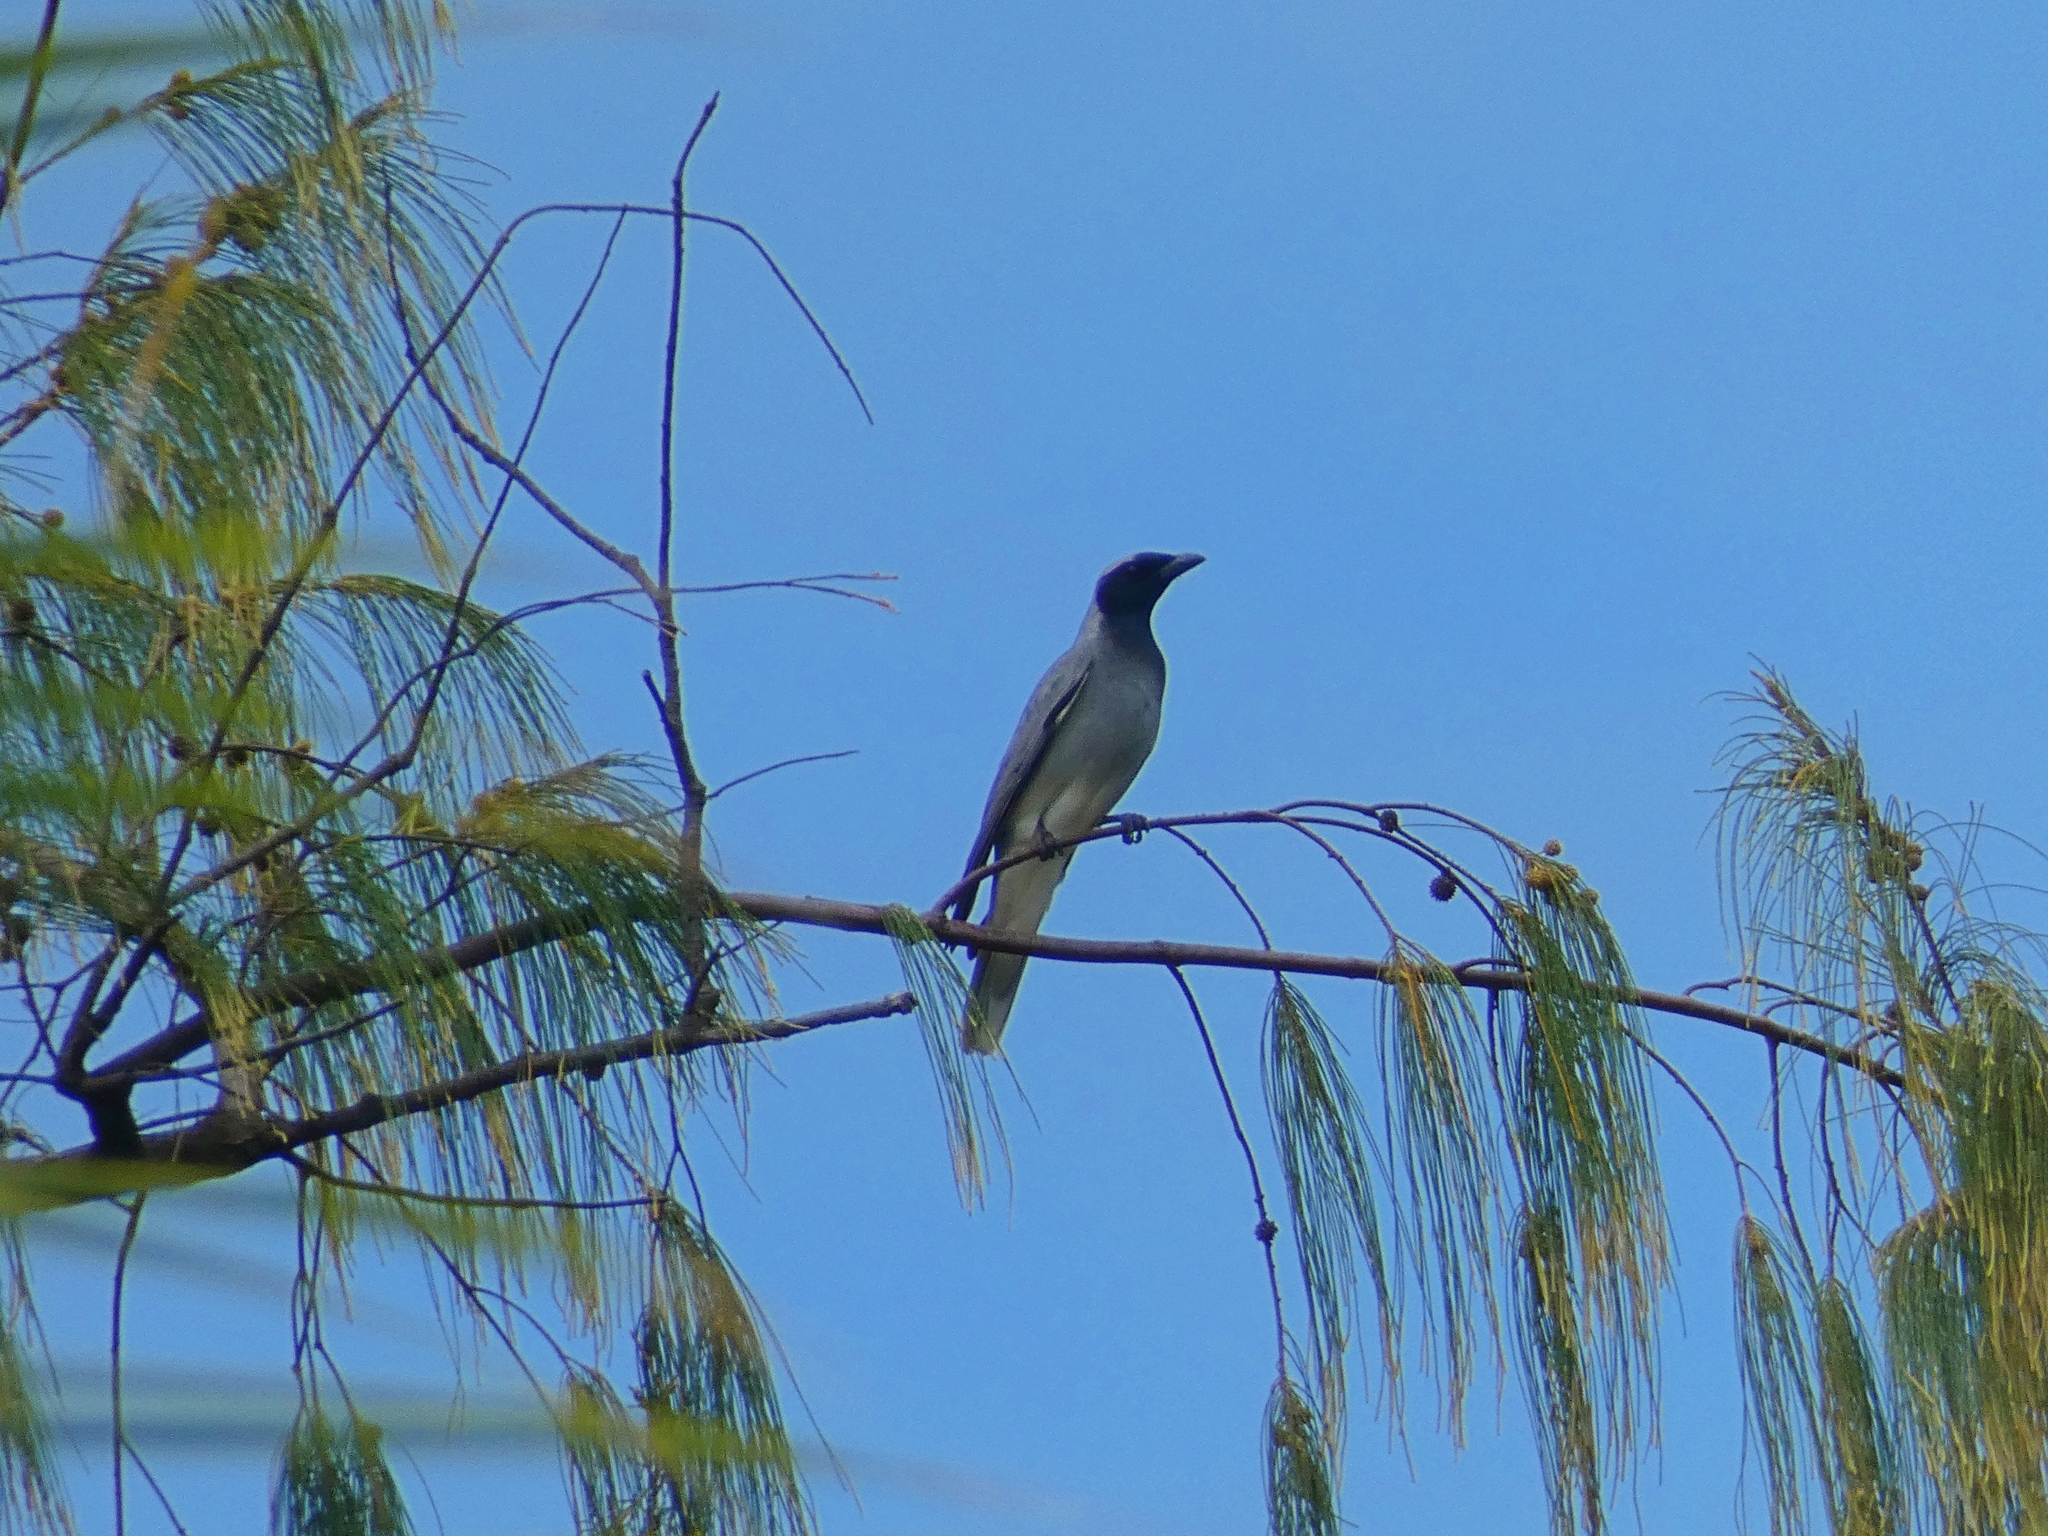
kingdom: Animalia
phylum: Chordata
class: Aves
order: Passeriformes
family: Campephagidae
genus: Coracina
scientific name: Coracina novaehollandiae
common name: Black-faced cuckooshrike
